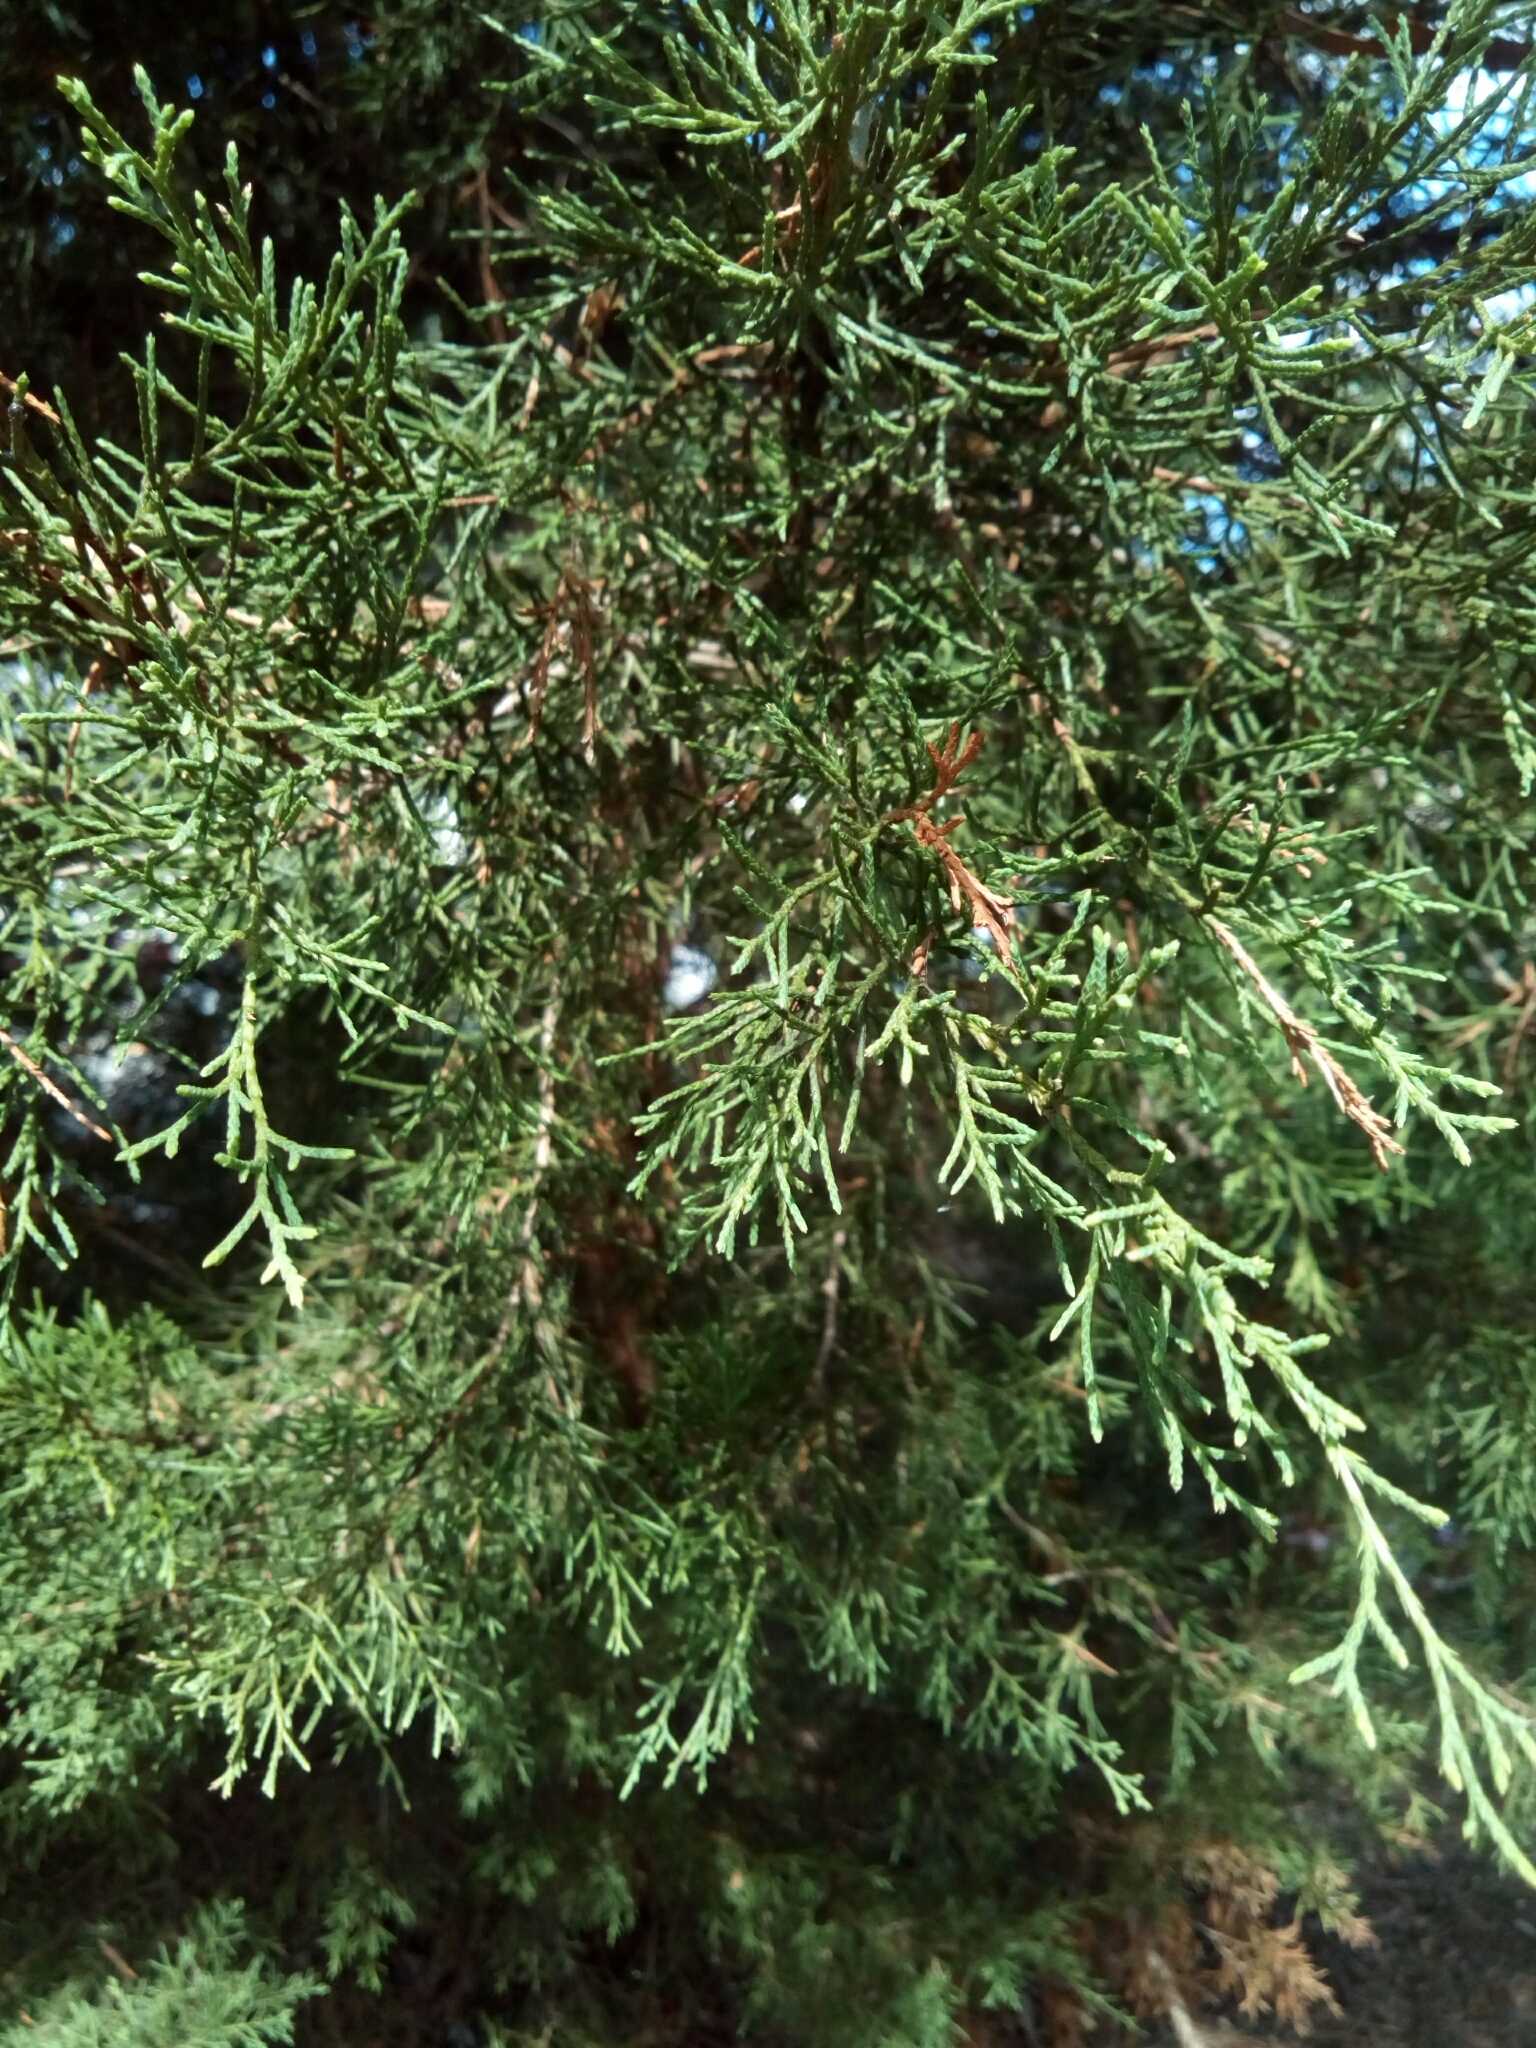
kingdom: Plantae
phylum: Tracheophyta
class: Pinopsida
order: Pinales
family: Cupressaceae
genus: Juniperus
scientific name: Juniperus virginiana
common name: Red juniper
